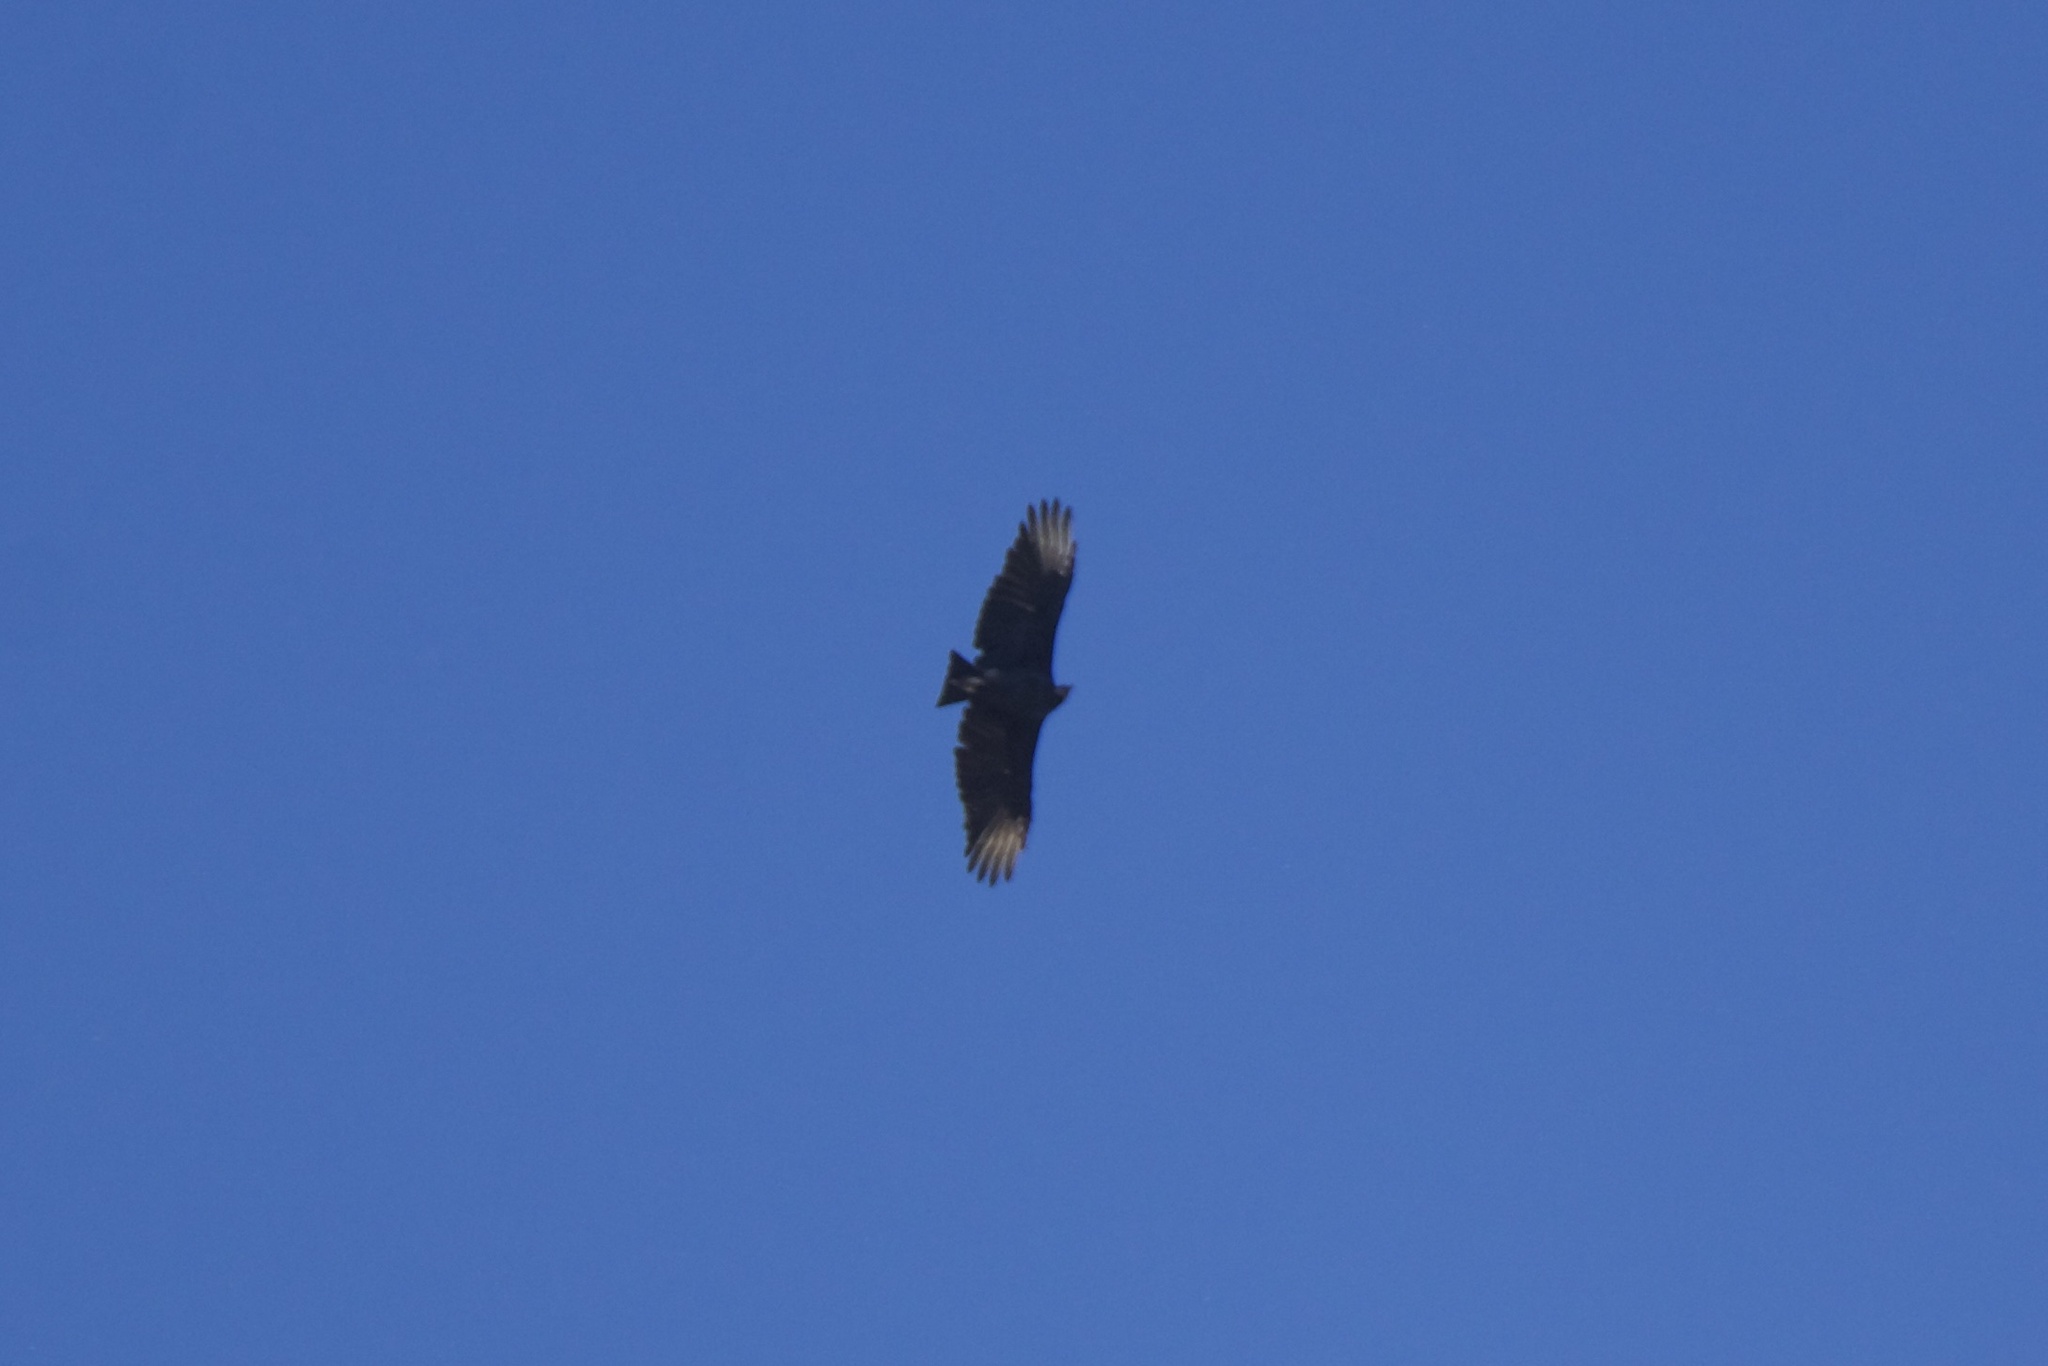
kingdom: Animalia
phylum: Chordata
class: Aves
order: Accipitriformes
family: Cathartidae
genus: Coragyps
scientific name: Coragyps atratus
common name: Black vulture
